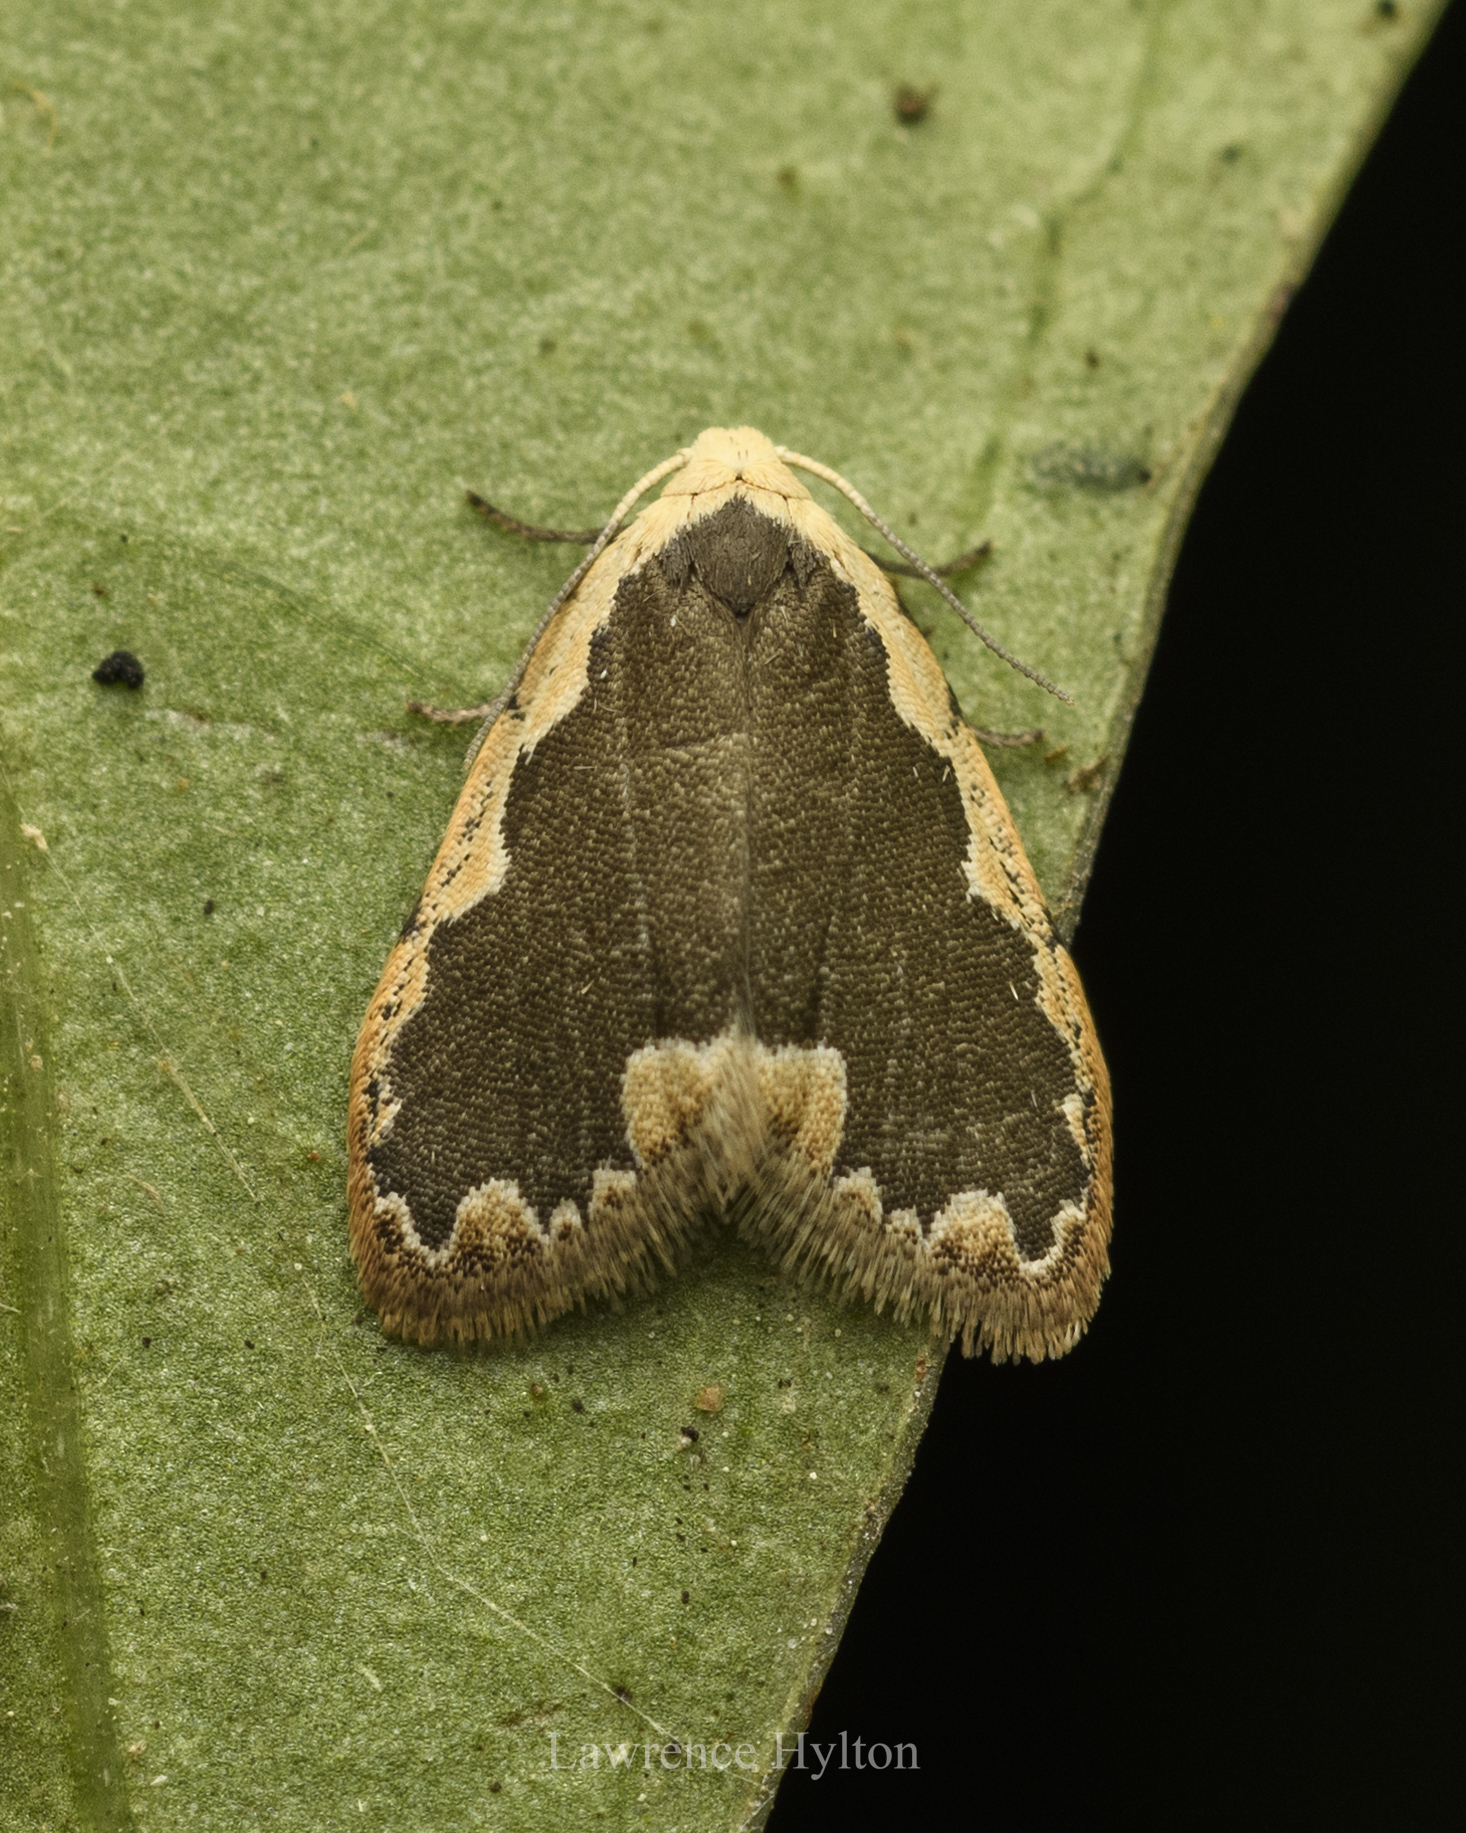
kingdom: Animalia
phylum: Arthropoda
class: Insecta
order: Lepidoptera
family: Erebidae
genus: Diduga
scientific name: Diduga flavicostata
